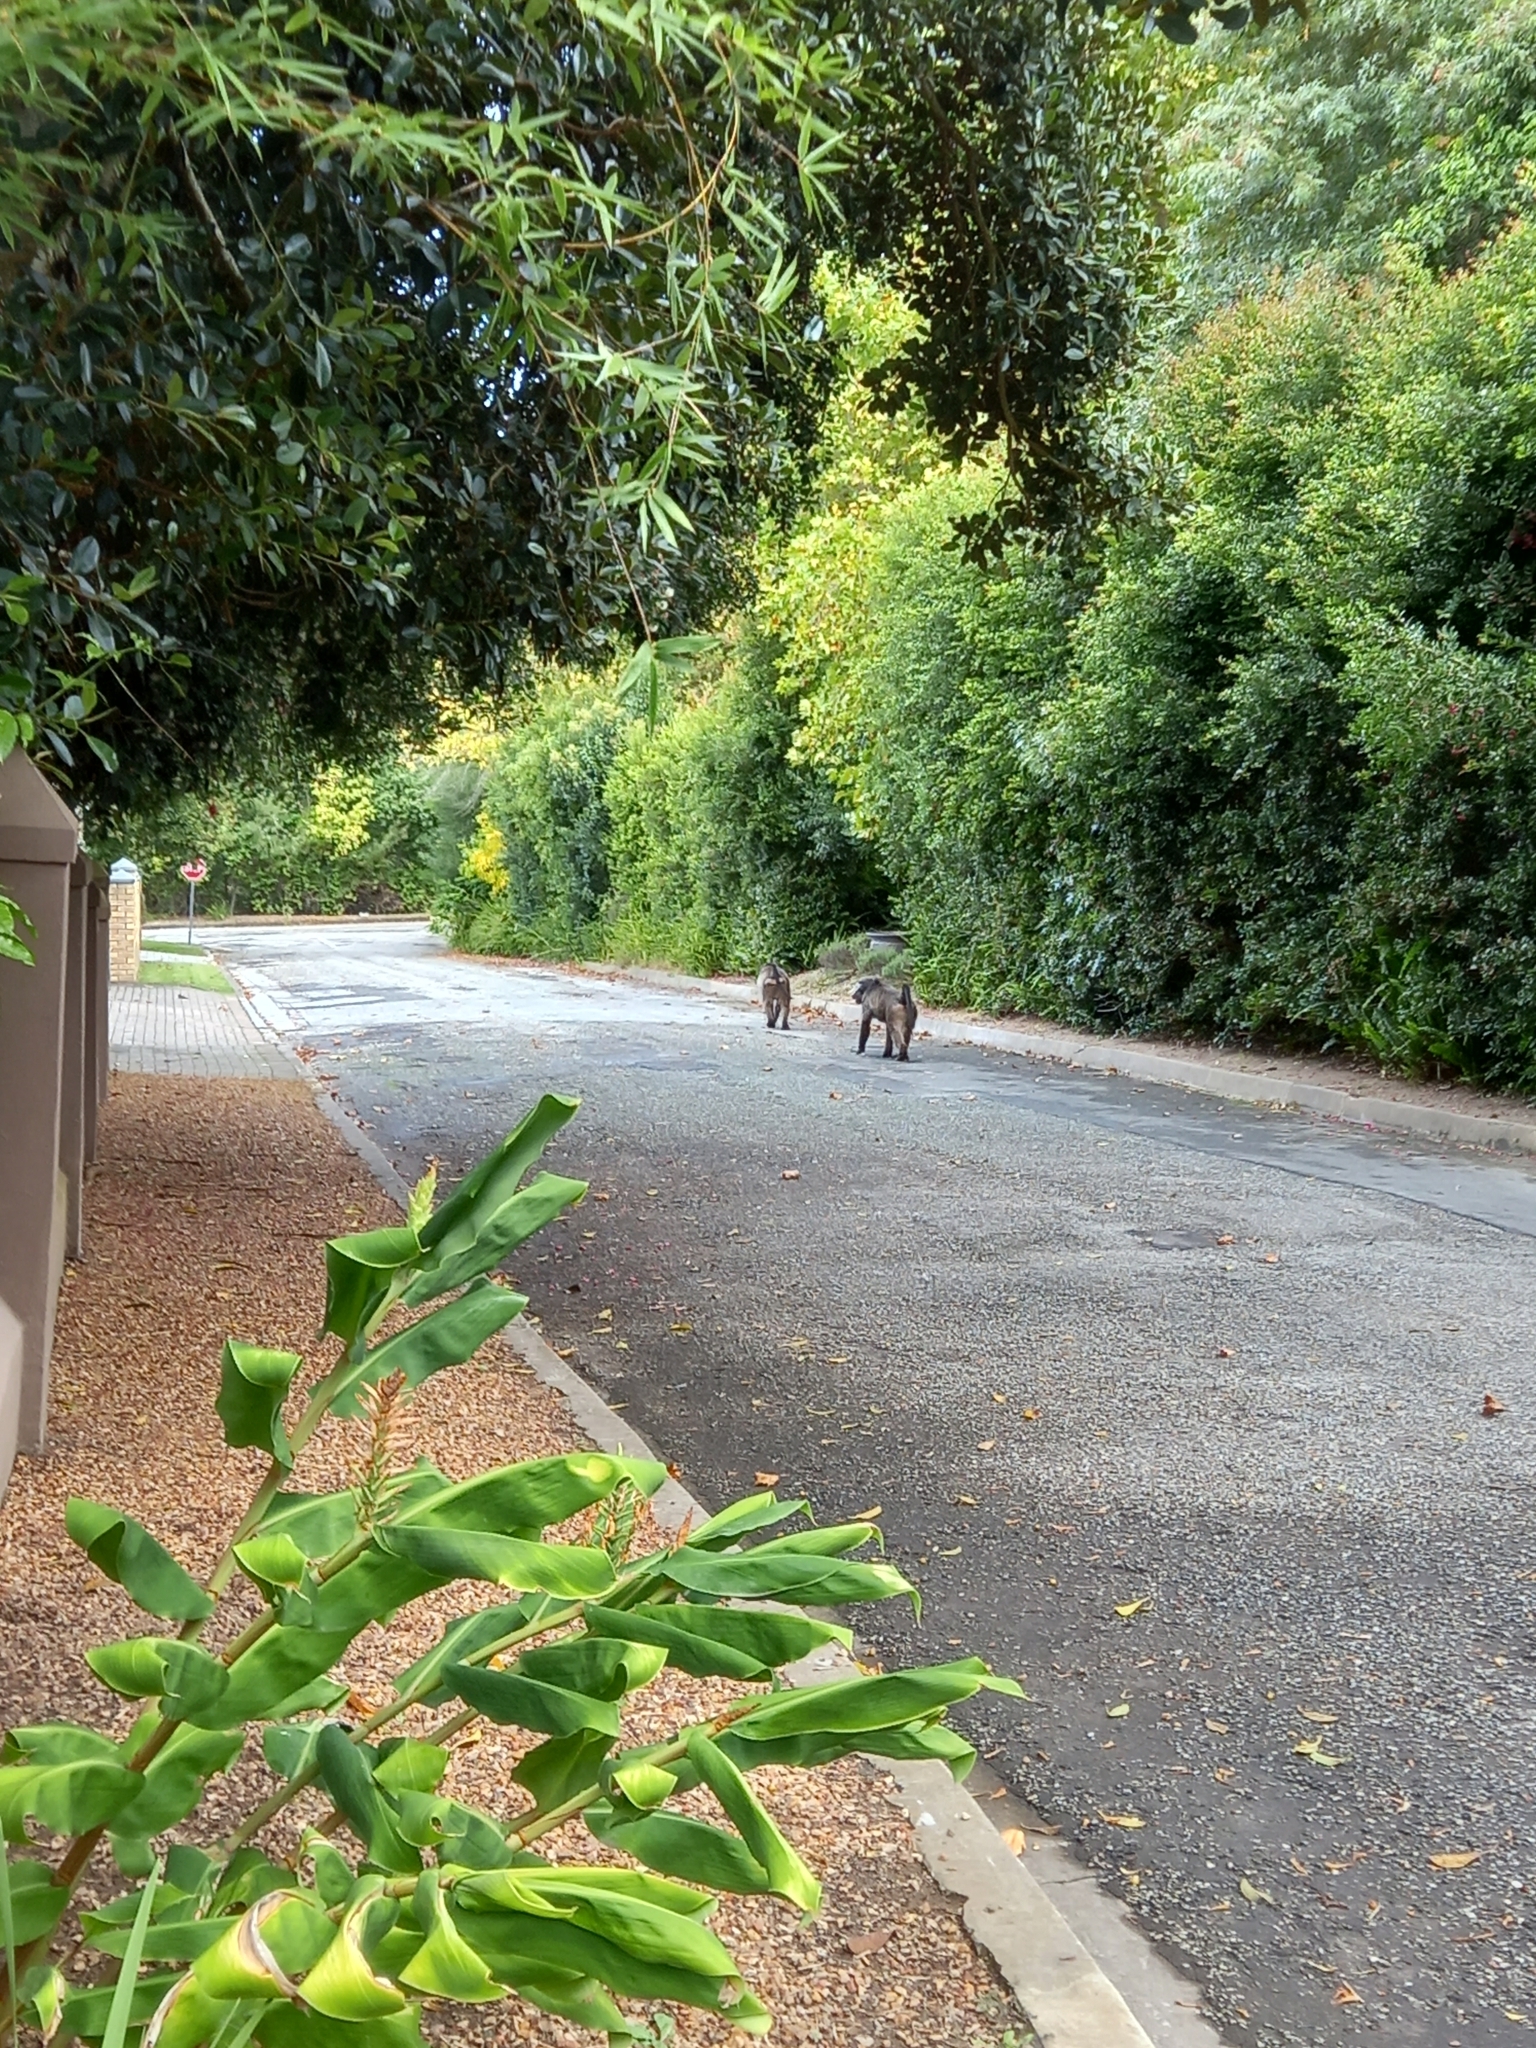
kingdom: Animalia
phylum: Chordata
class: Mammalia
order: Primates
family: Cercopithecidae
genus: Papio
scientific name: Papio ursinus
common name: Chacma baboon
